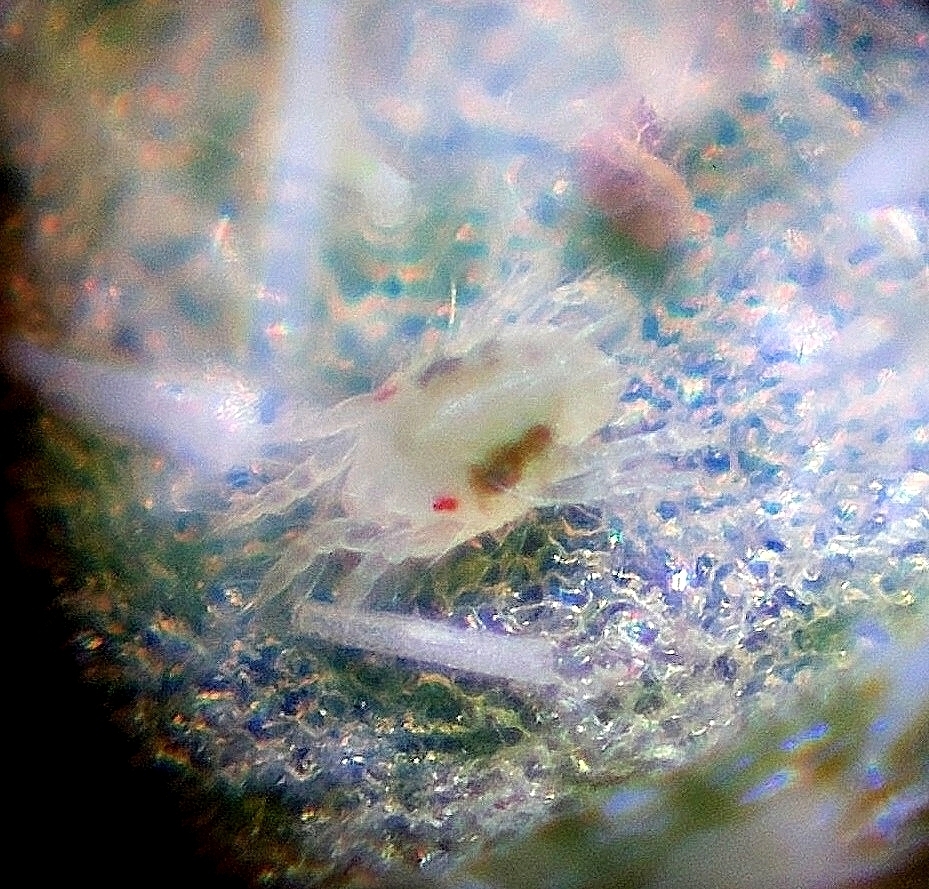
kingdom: Animalia
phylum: Arthropoda
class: Arachnida
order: Trombidiformes
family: Tetranychidae
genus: Tetranychus
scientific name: Tetranychus urticae
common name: Carmine spider mite
